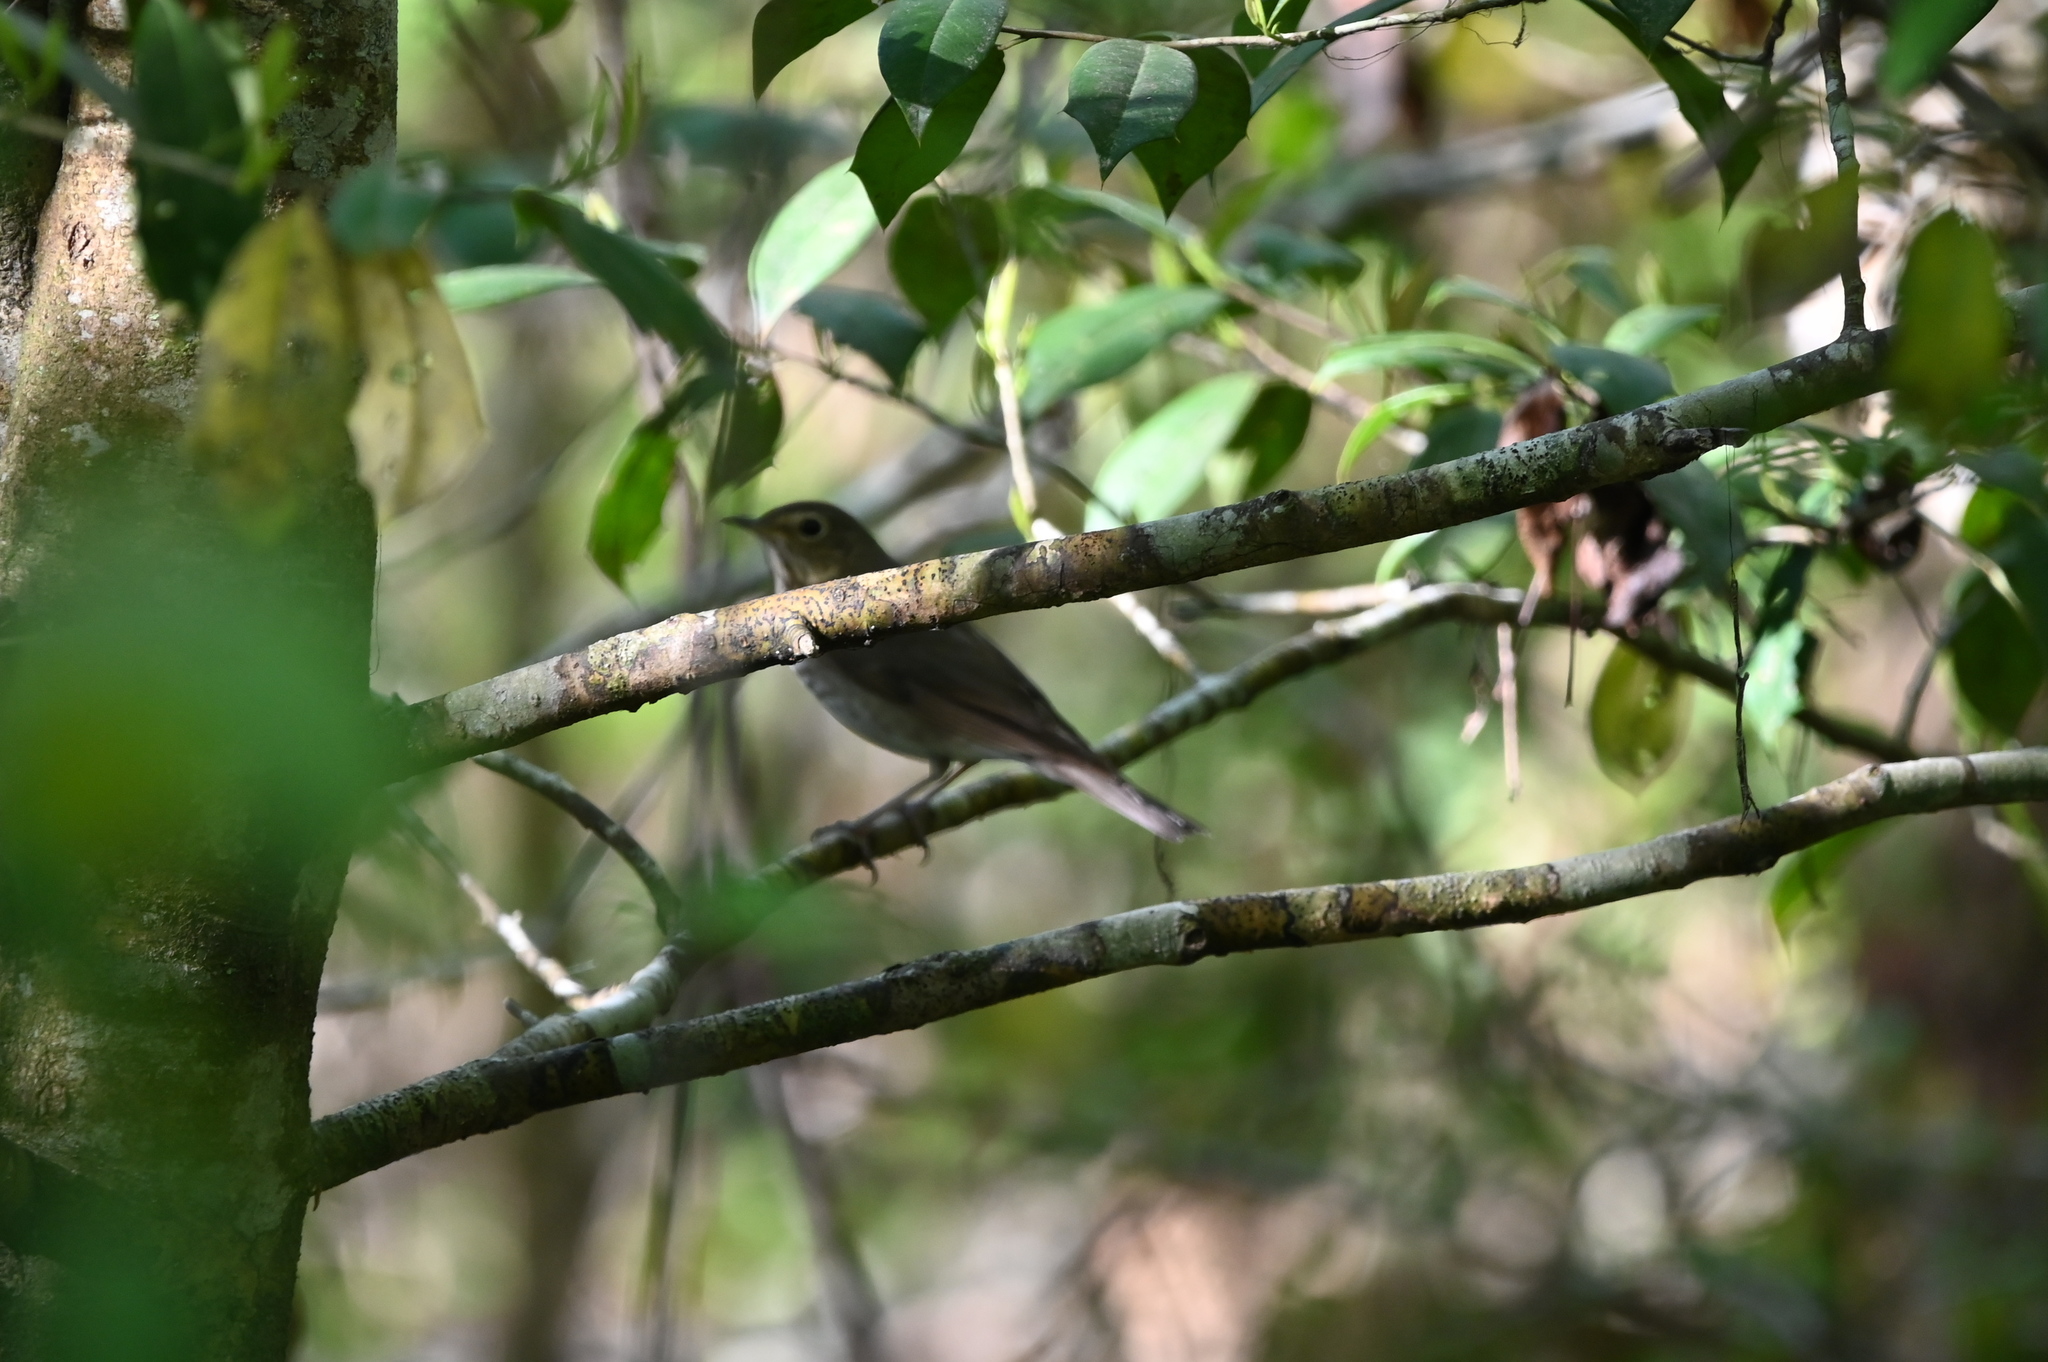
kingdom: Animalia
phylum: Chordata
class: Aves
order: Passeriformes
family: Turdidae
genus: Catharus
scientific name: Catharus ustulatus
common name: Swainson's thrush
